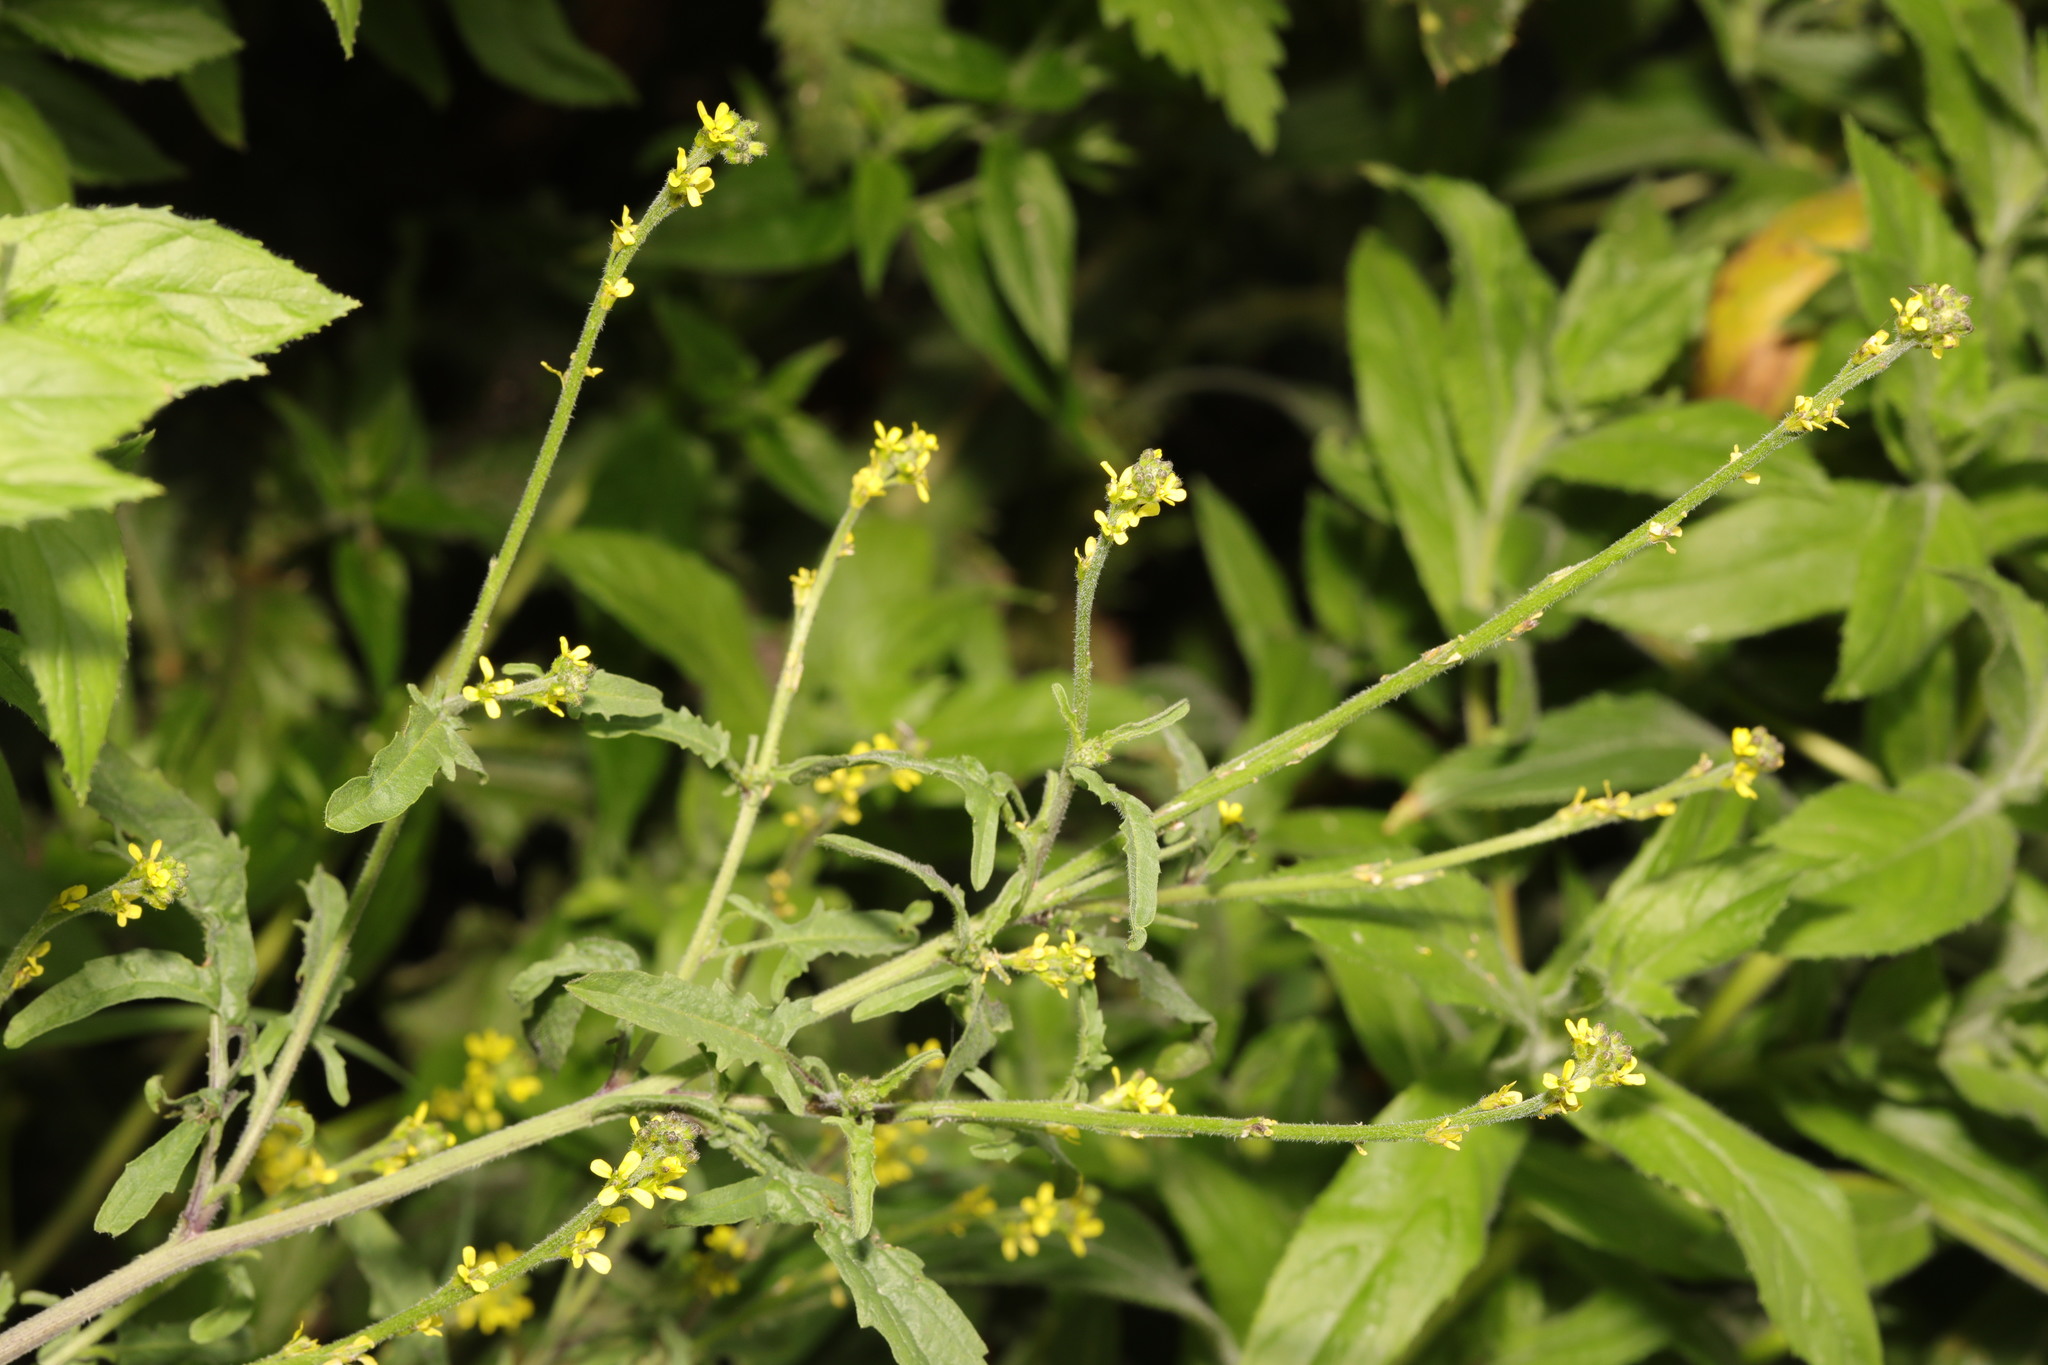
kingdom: Plantae
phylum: Tracheophyta
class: Magnoliopsida
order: Brassicales
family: Brassicaceae
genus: Sisymbrium
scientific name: Sisymbrium officinale
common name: Hedge mustard
